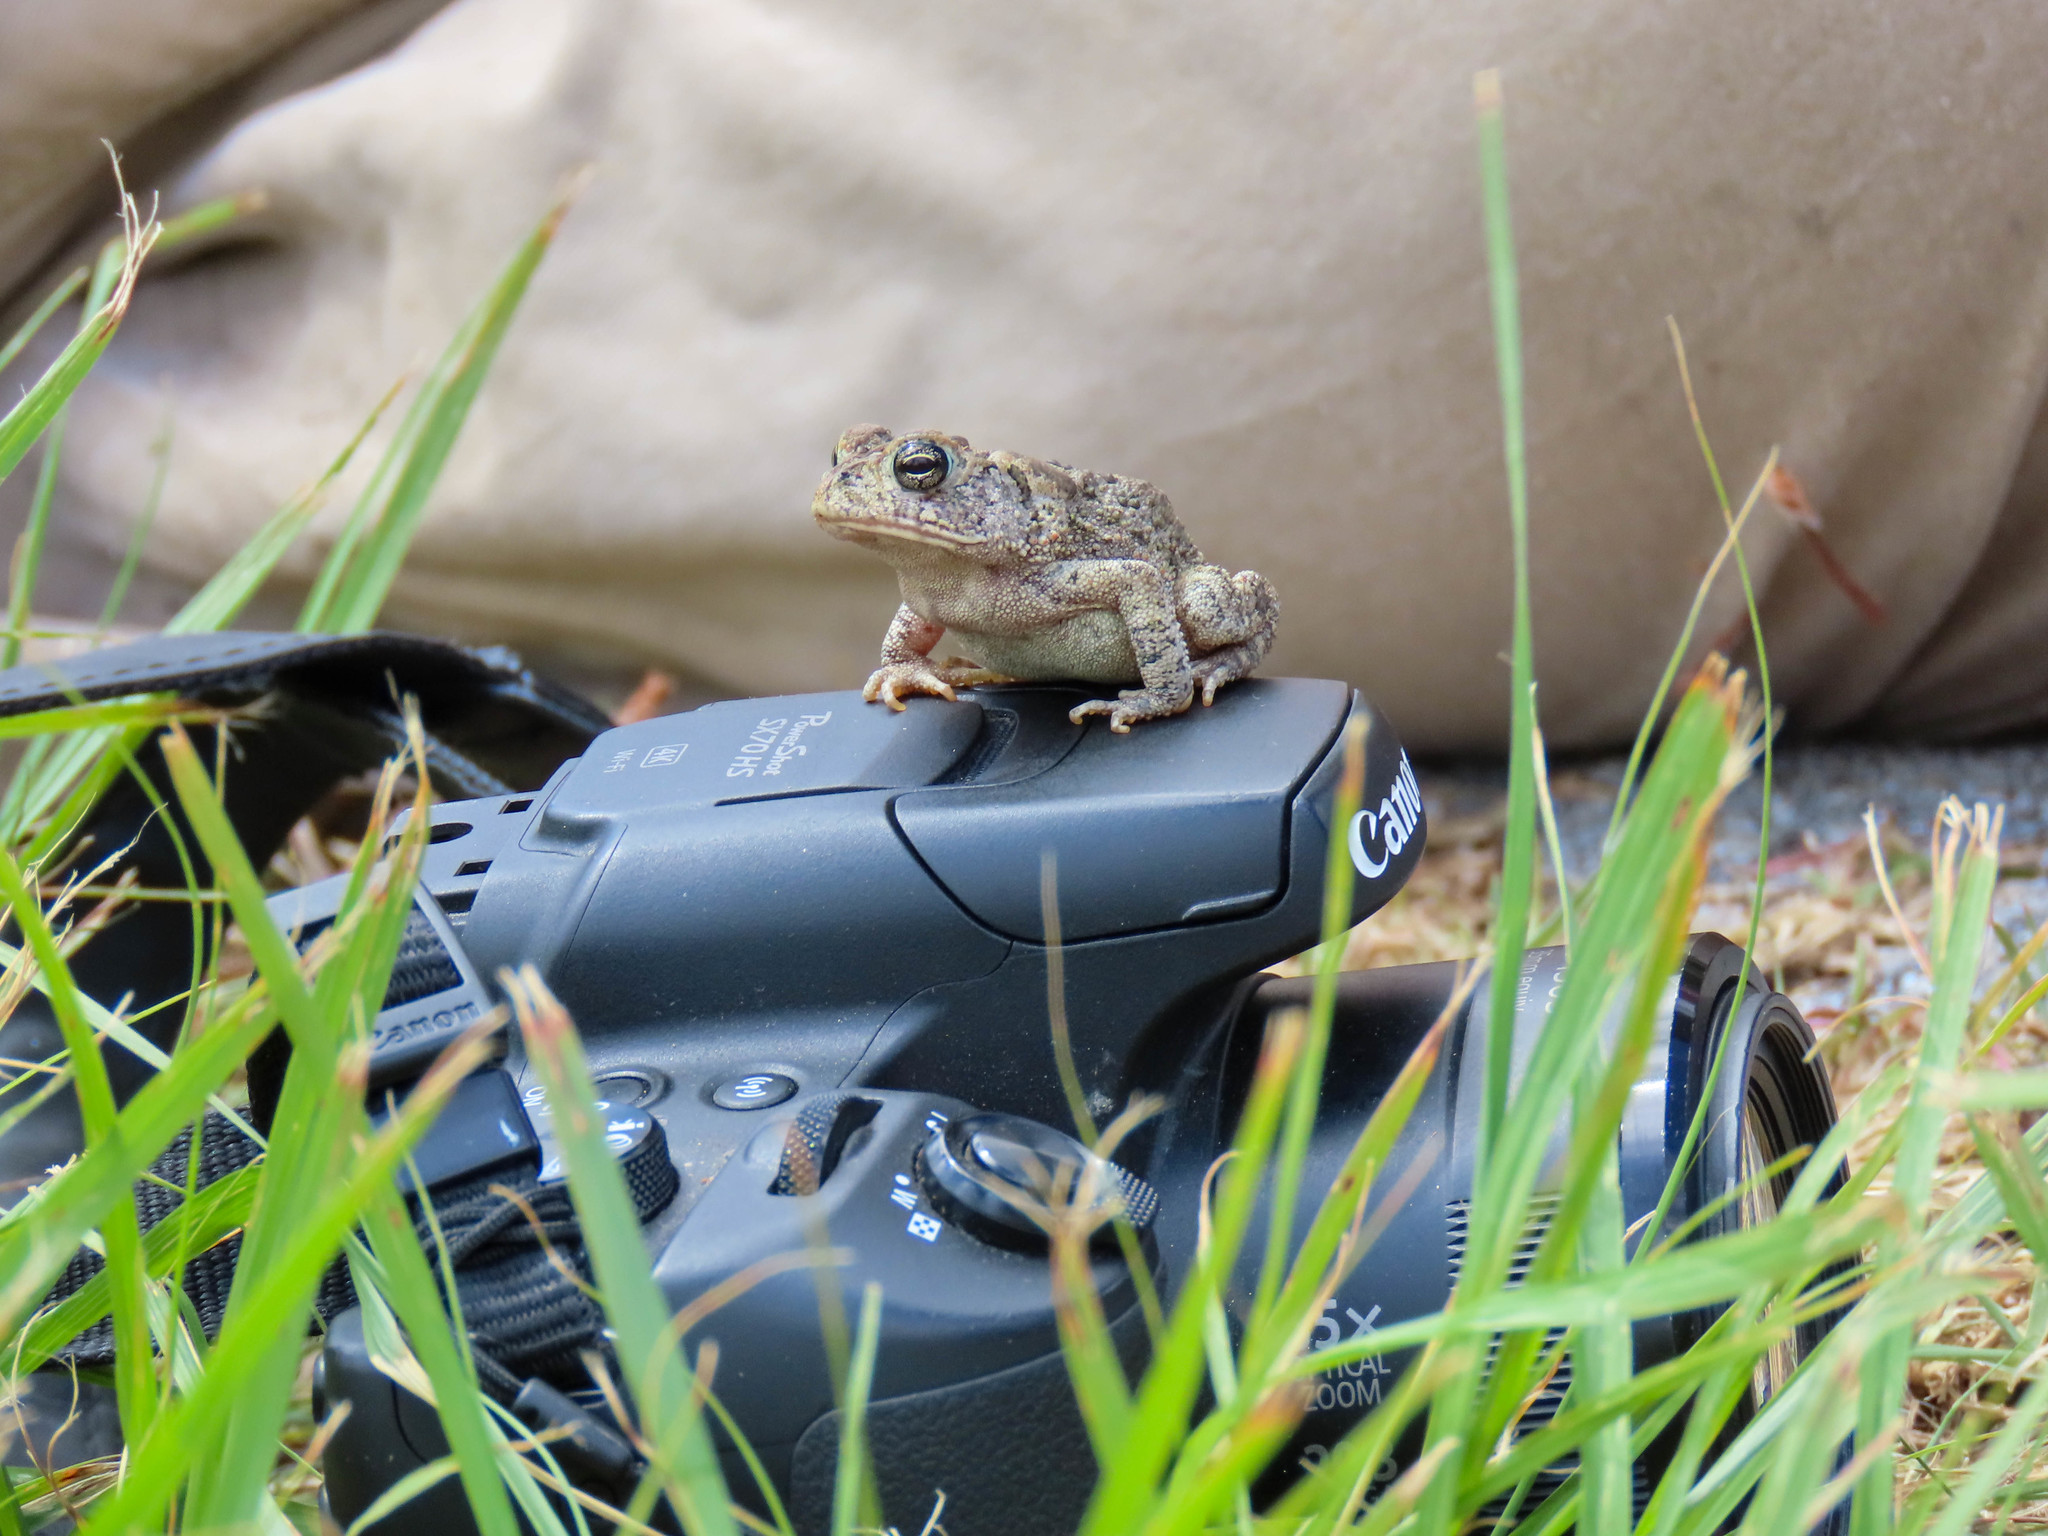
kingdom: Animalia
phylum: Chordata
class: Amphibia
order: Anura
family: Bufonidae
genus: Anaxyrus
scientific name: Anaxyrus terrestris
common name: Southern toad
